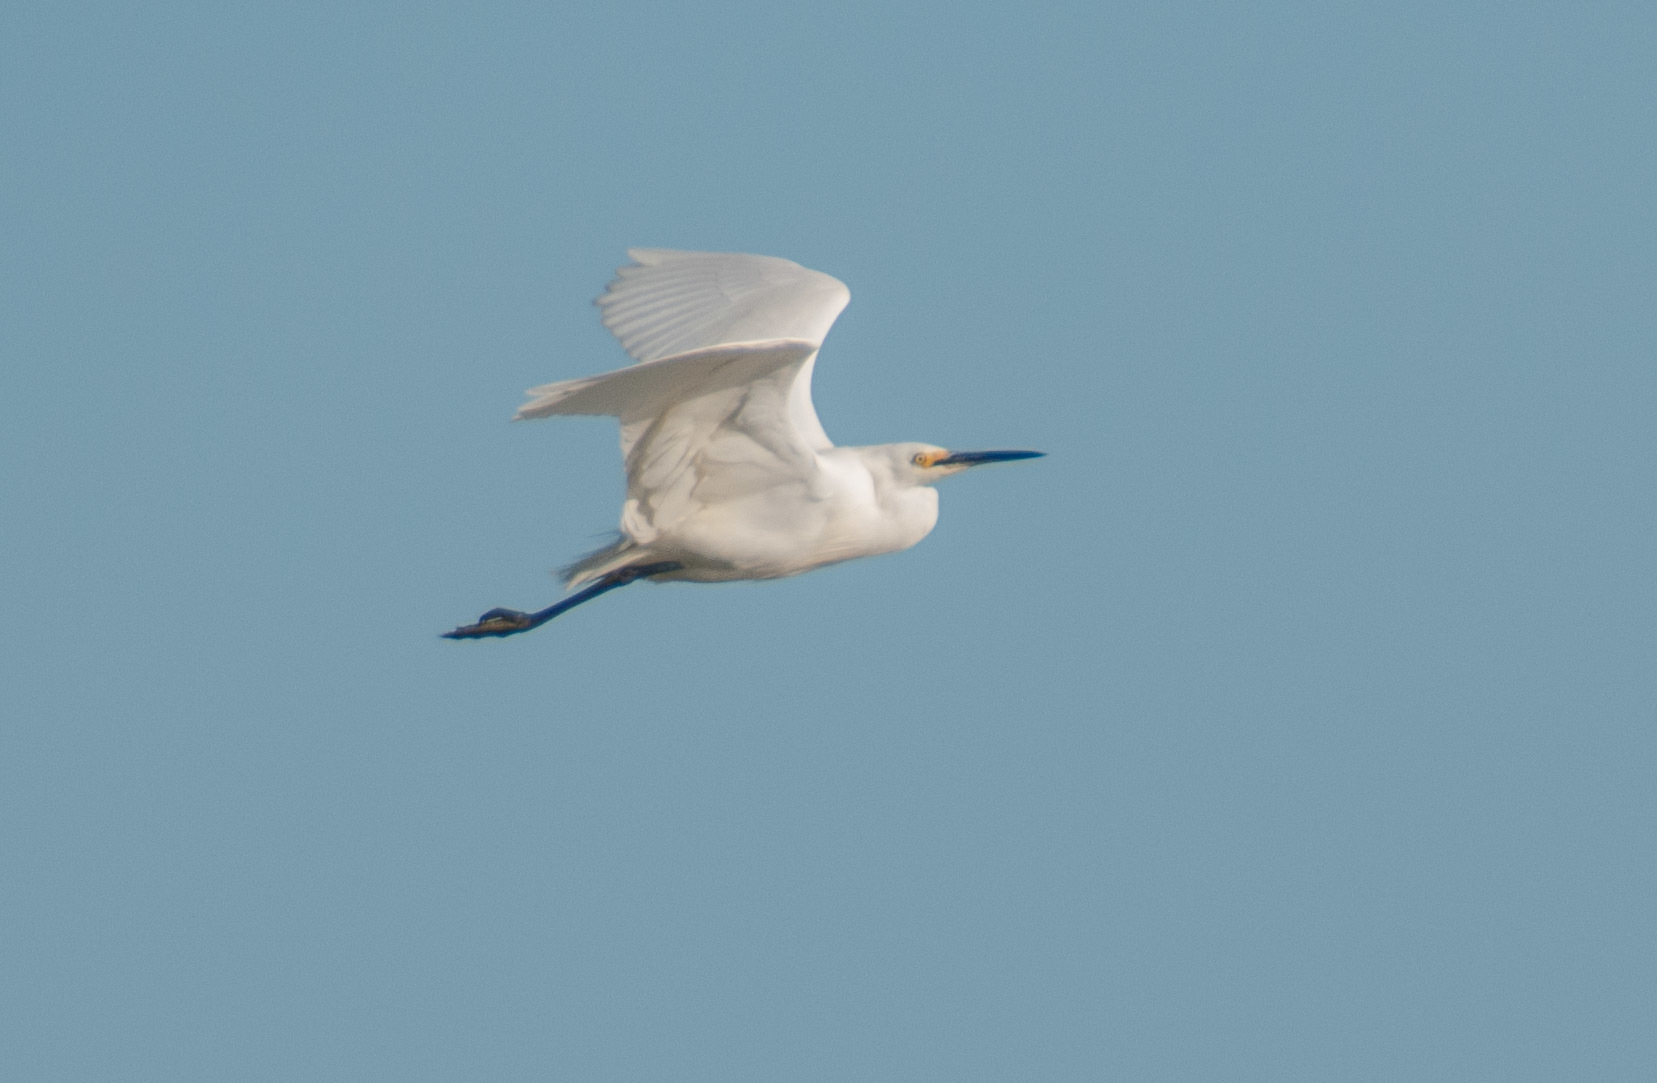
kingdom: Animalia
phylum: Chordata
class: Aves
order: Pelecaniformes
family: Ardeidae
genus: Egretta
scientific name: Egretta garzetta
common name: Little egret
